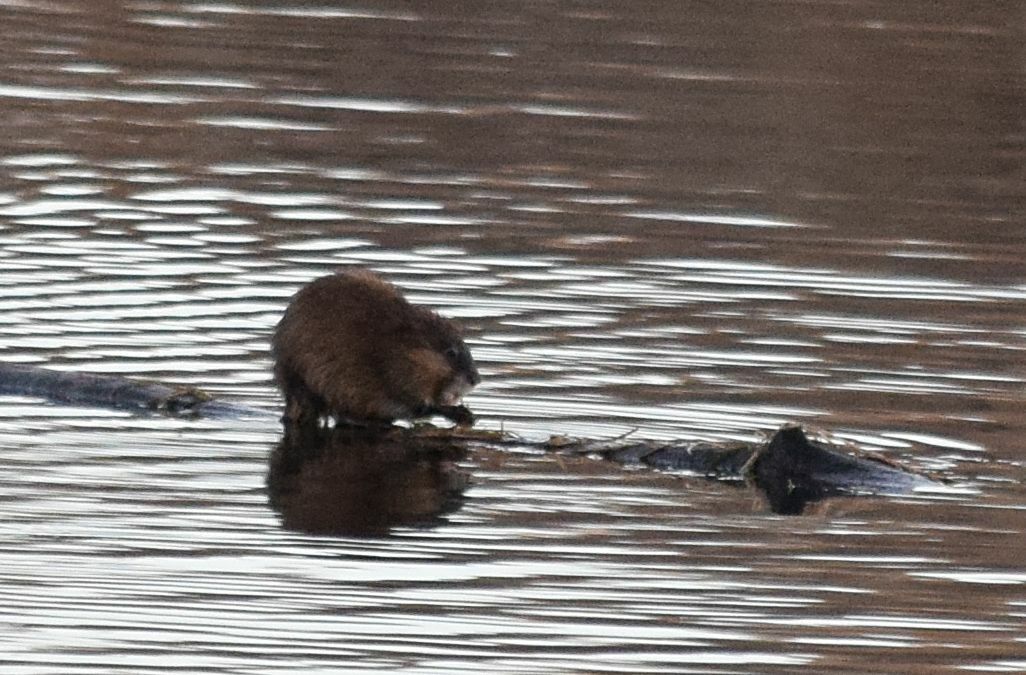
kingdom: Animalia
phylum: Chordata
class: Mammalia
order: Rodentia
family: Cricetidae
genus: Ondatra
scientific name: Ondatra zibethicus
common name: Muskrat
